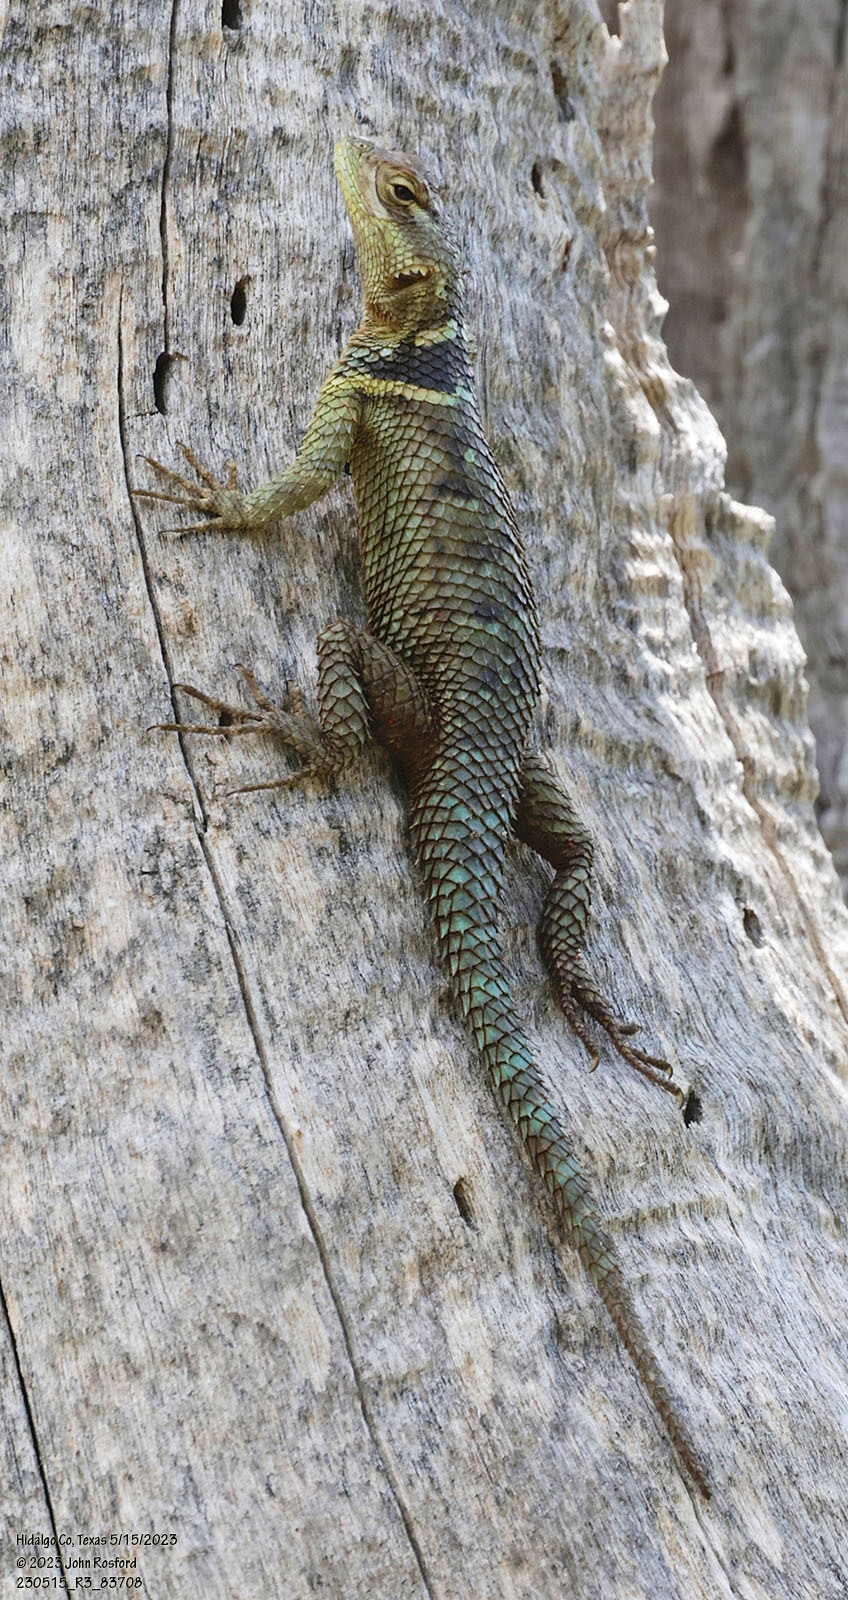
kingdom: Animalia
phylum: Chordata
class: Squamata
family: Phrynosomatidae
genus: Sceloporus
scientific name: Sceloporus cyanogenys
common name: Blue spiny lizard
